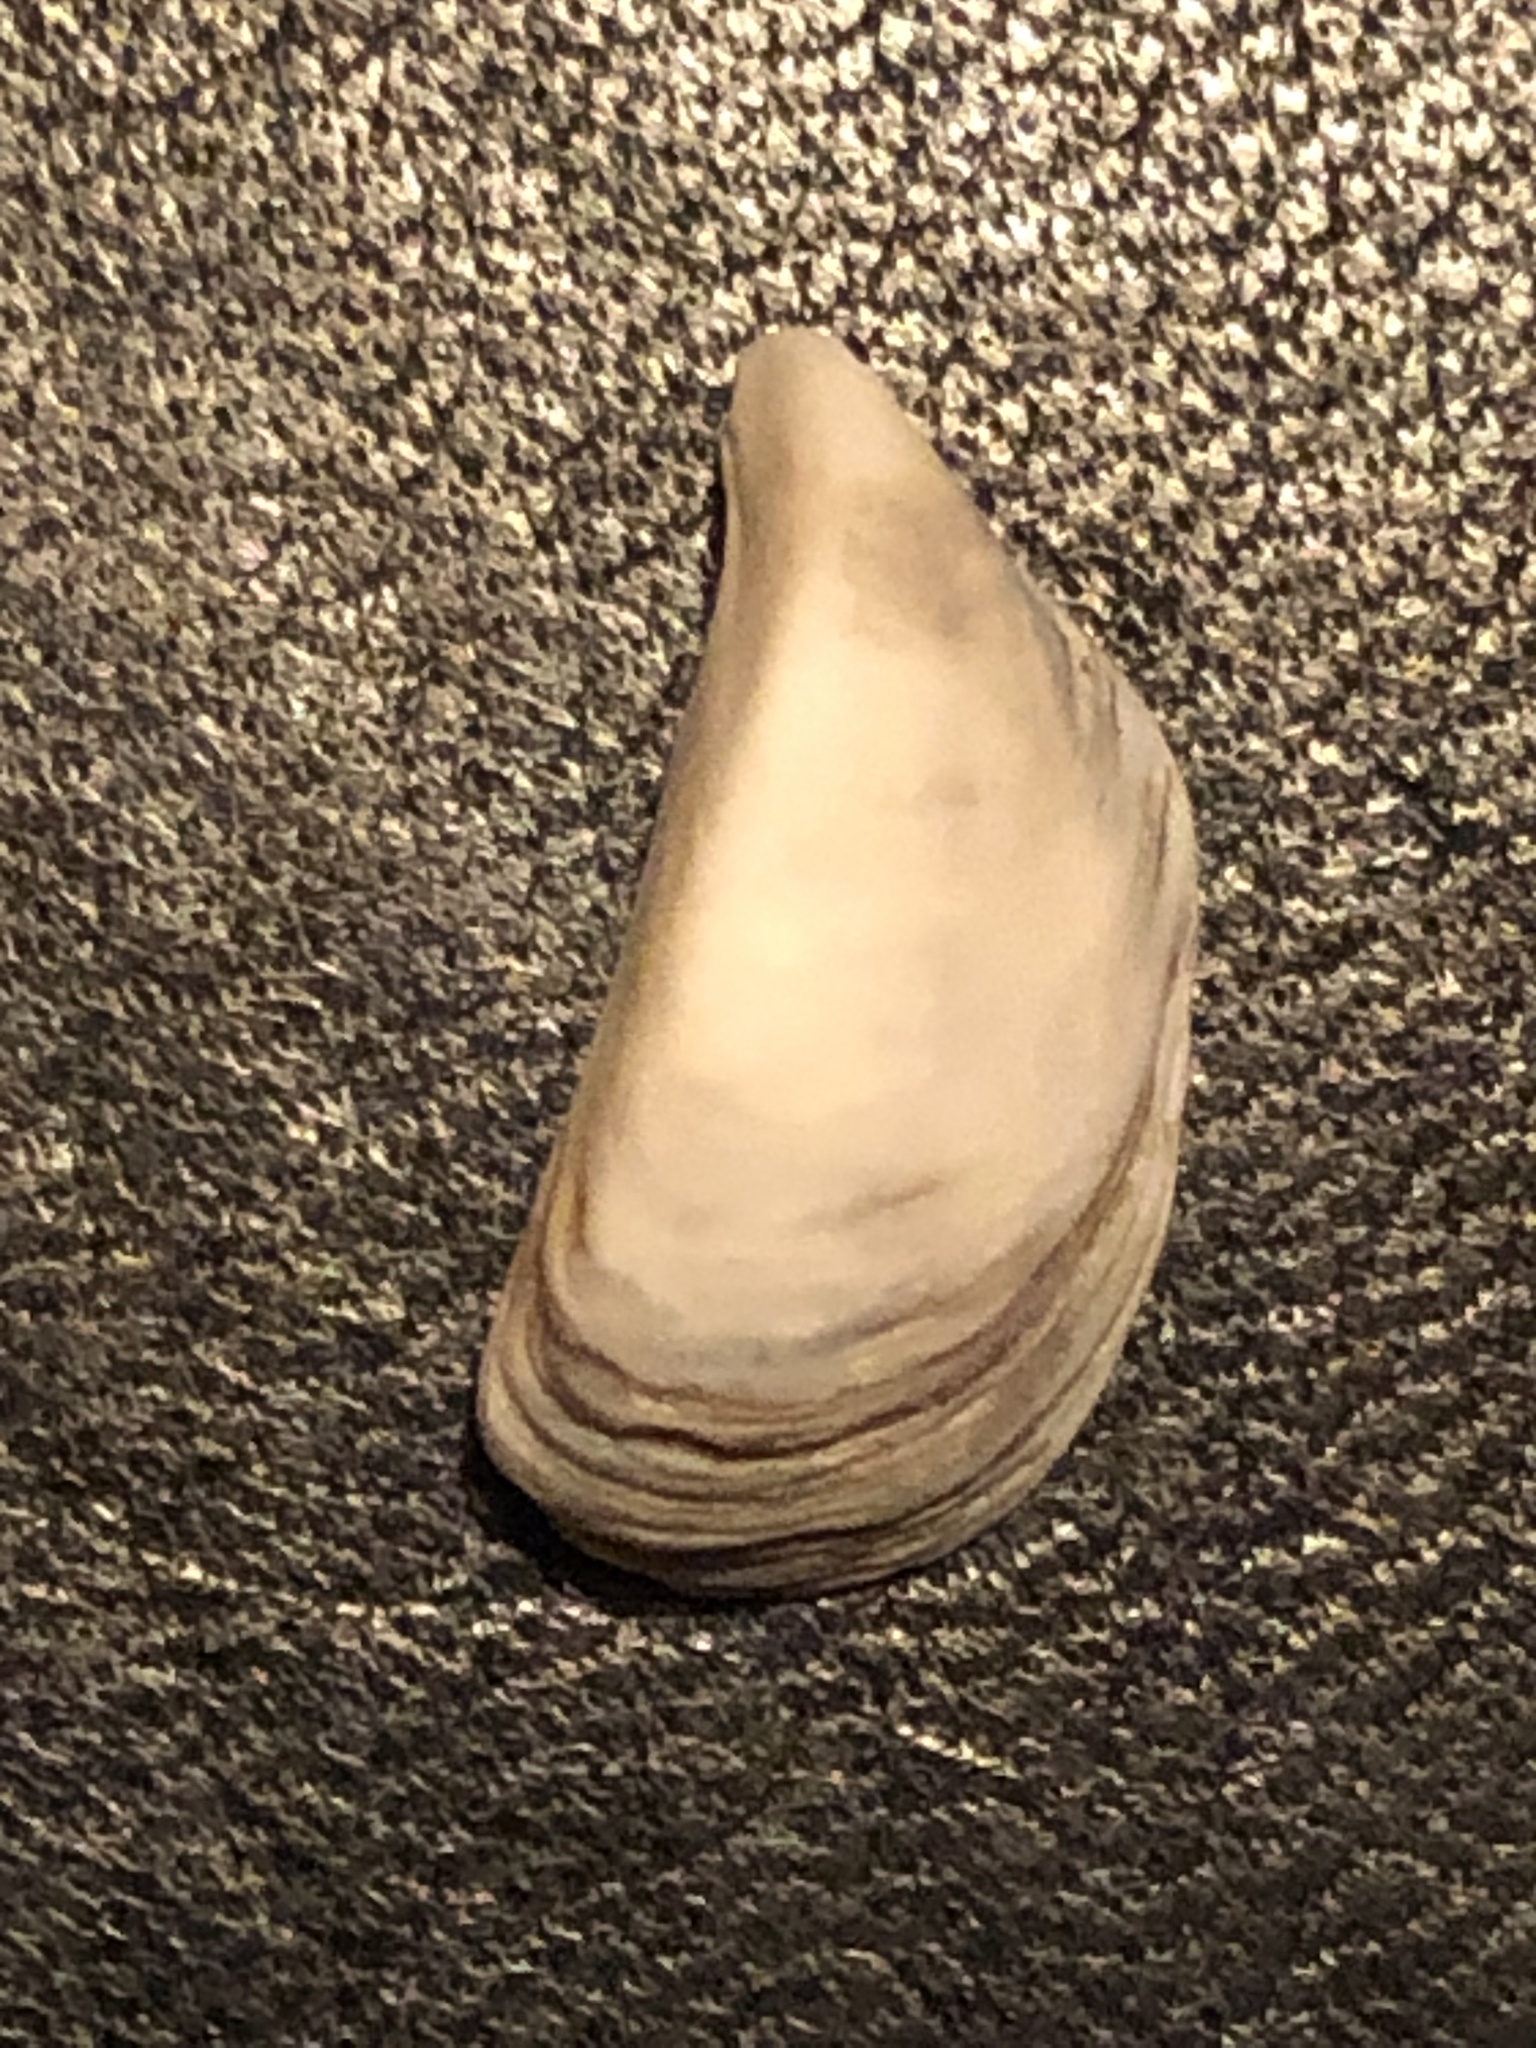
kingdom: Animalia
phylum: Mollusca
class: Bivalvia
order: Myida
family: Dreissenidae
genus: Dreissena
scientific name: Dreissena polymorpha
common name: Zebra mussel
